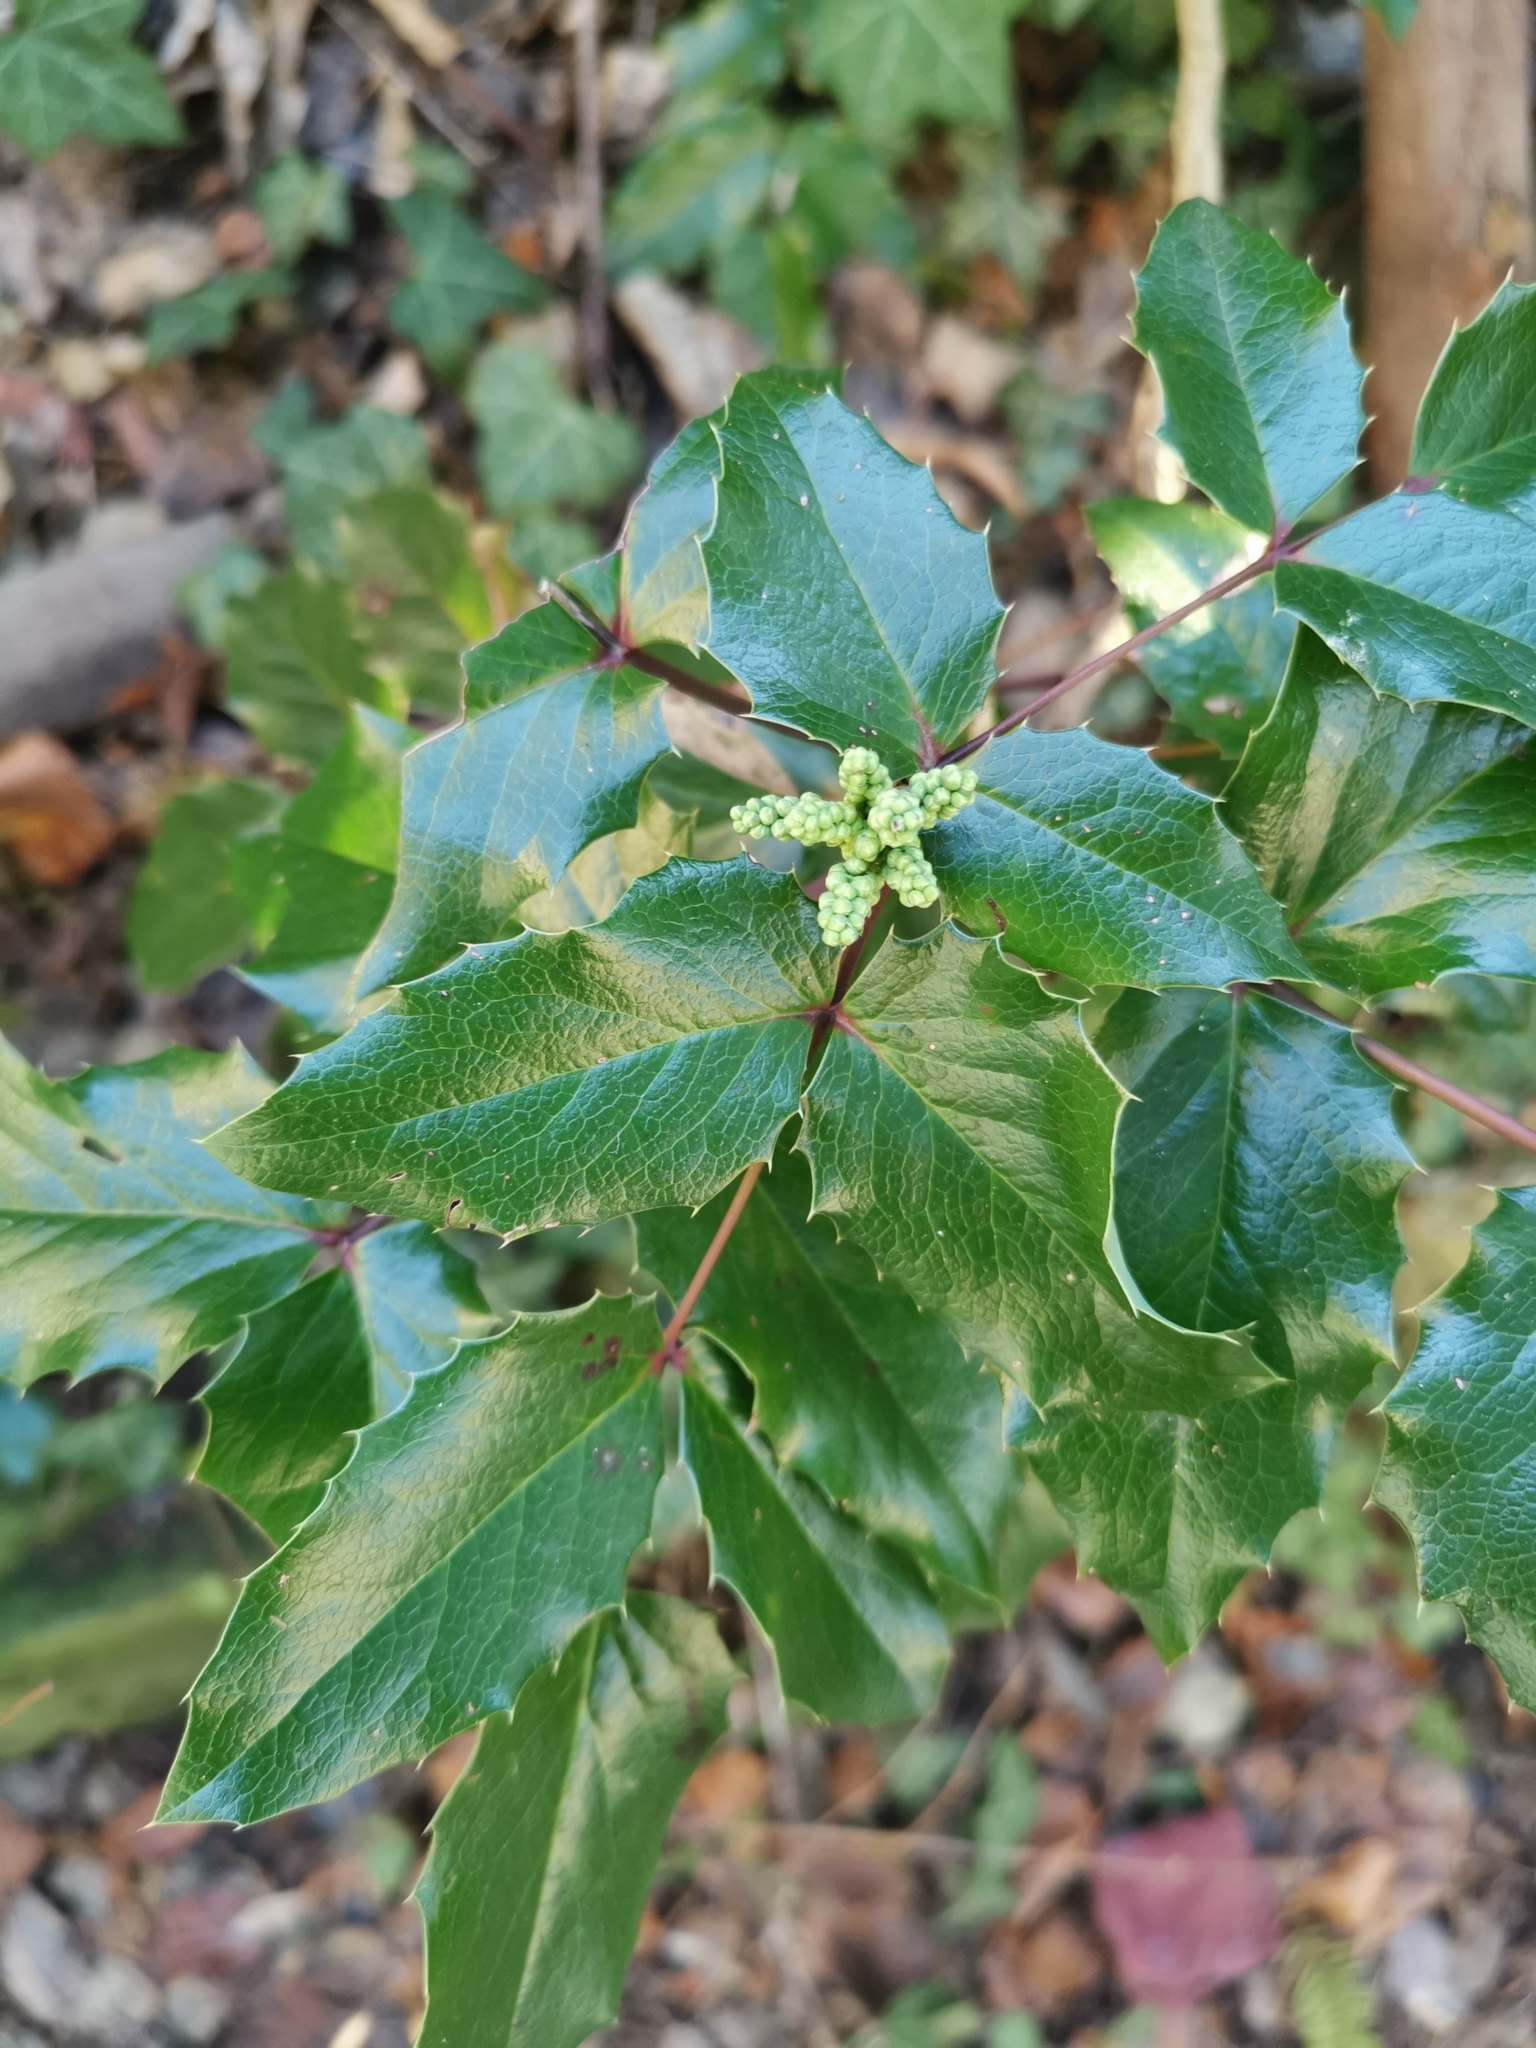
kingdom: Plantae
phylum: Tracheophyta
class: Magnoliopsida
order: Ranunculales
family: Berberidaceae
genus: Mahonia
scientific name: Mahonia aquifolium
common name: Oregon-grape
